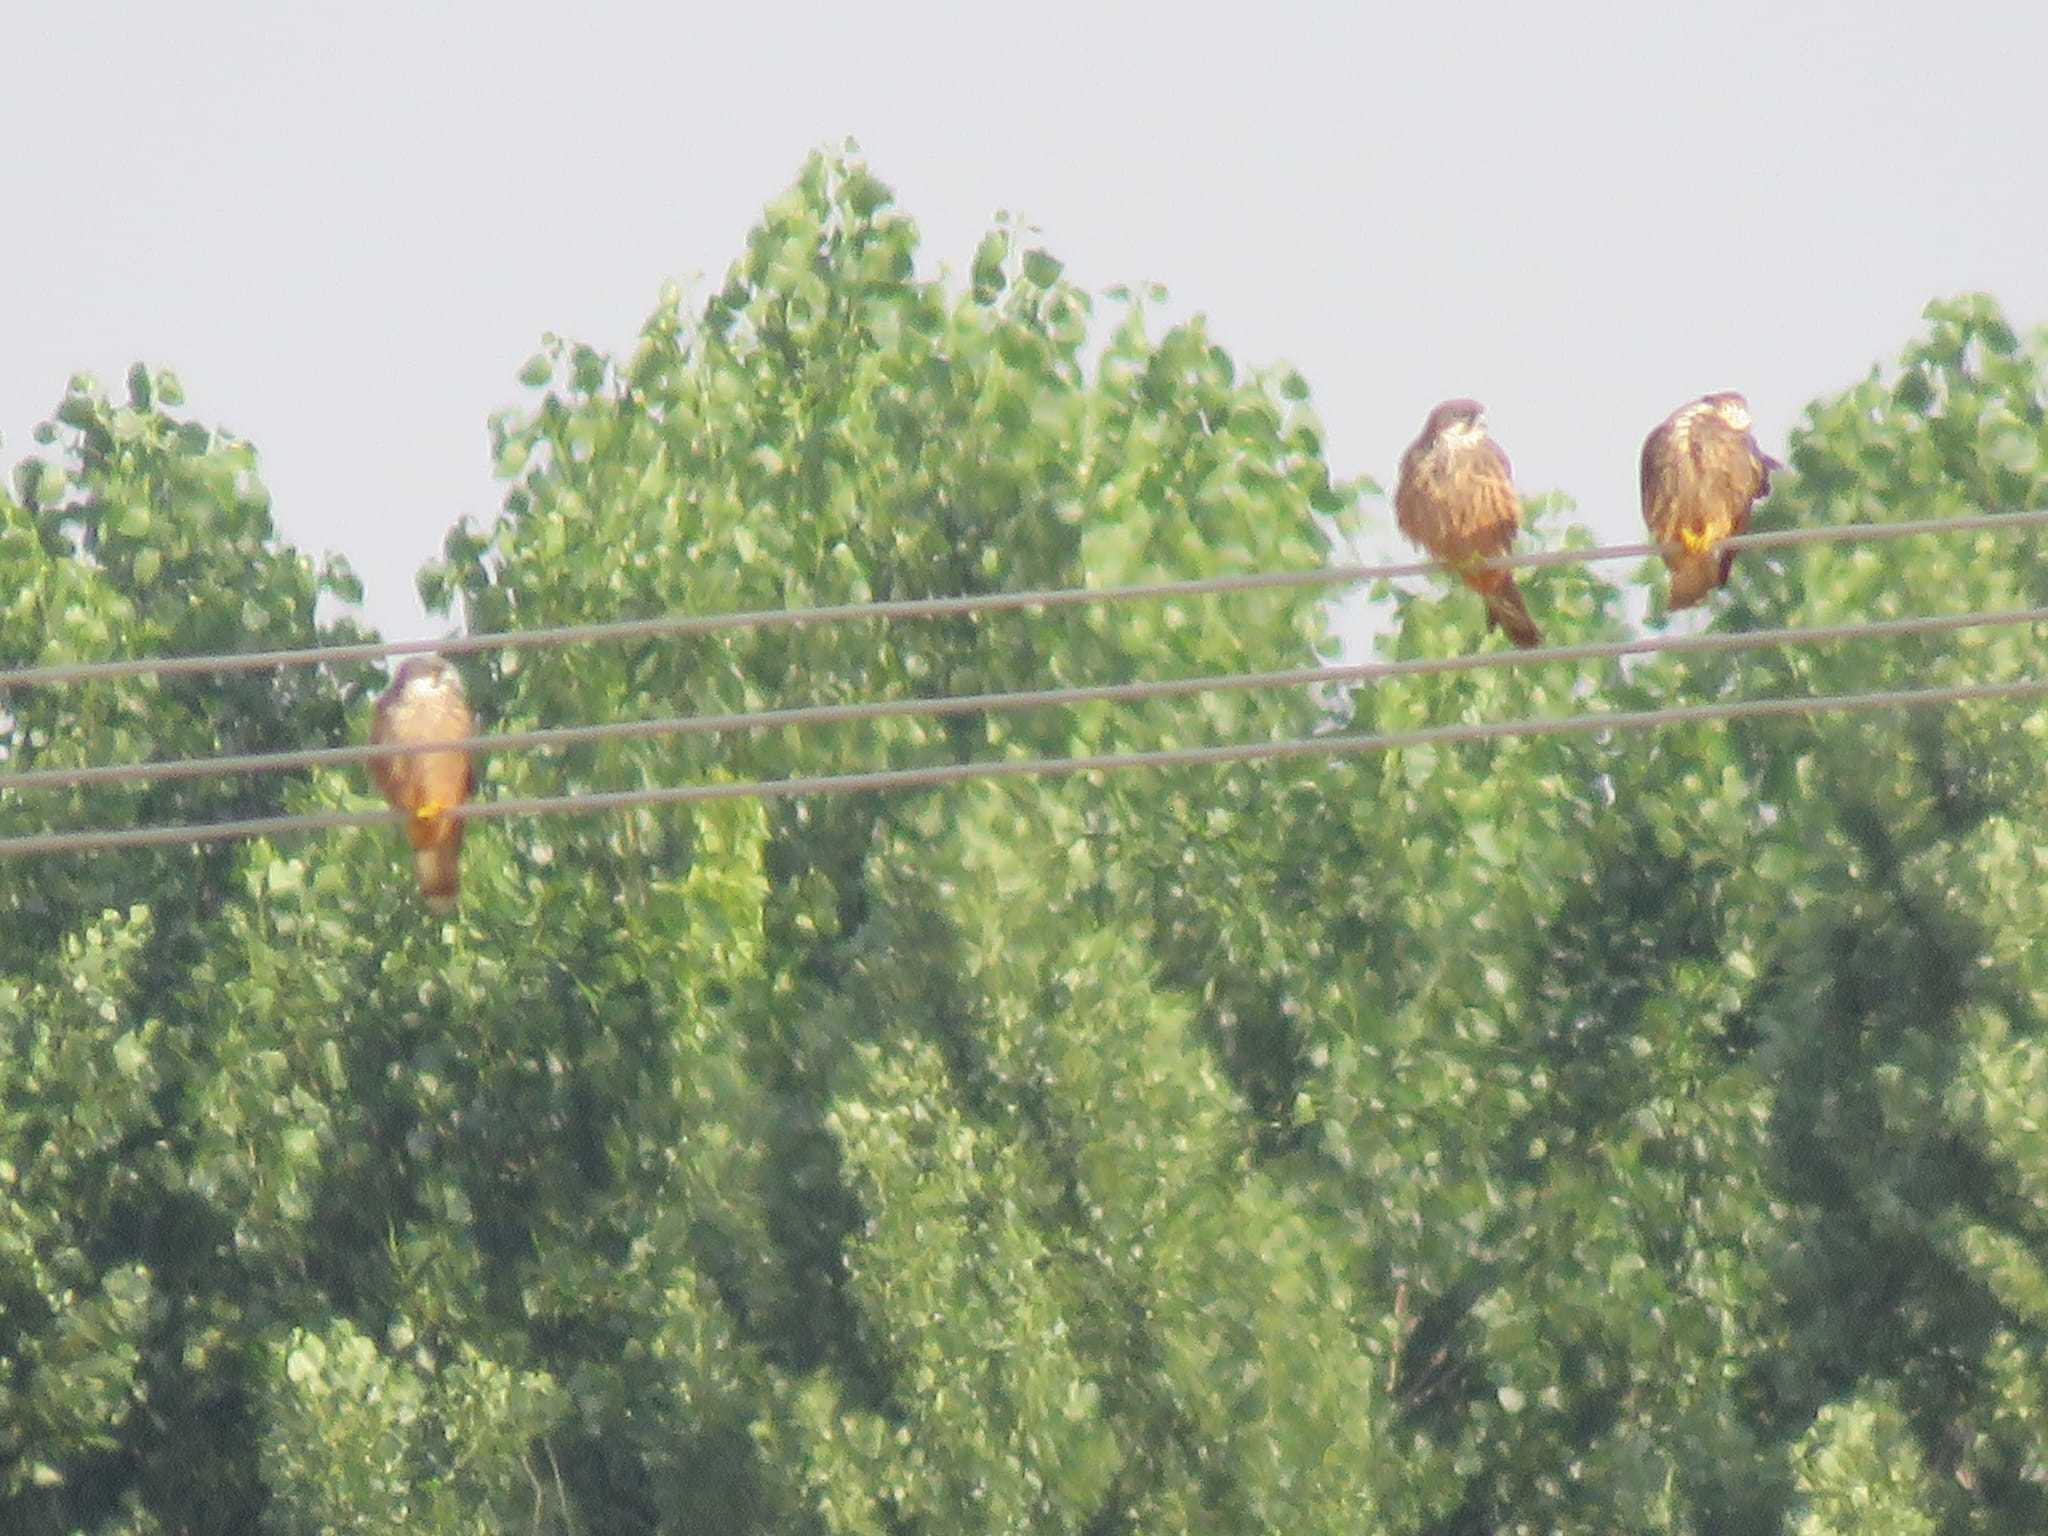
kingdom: Animalia
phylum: Chordata
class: Aves
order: Falconiformes
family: Falconidae
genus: Falco
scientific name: Falco eleonorae
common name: Eleonora's falcon
